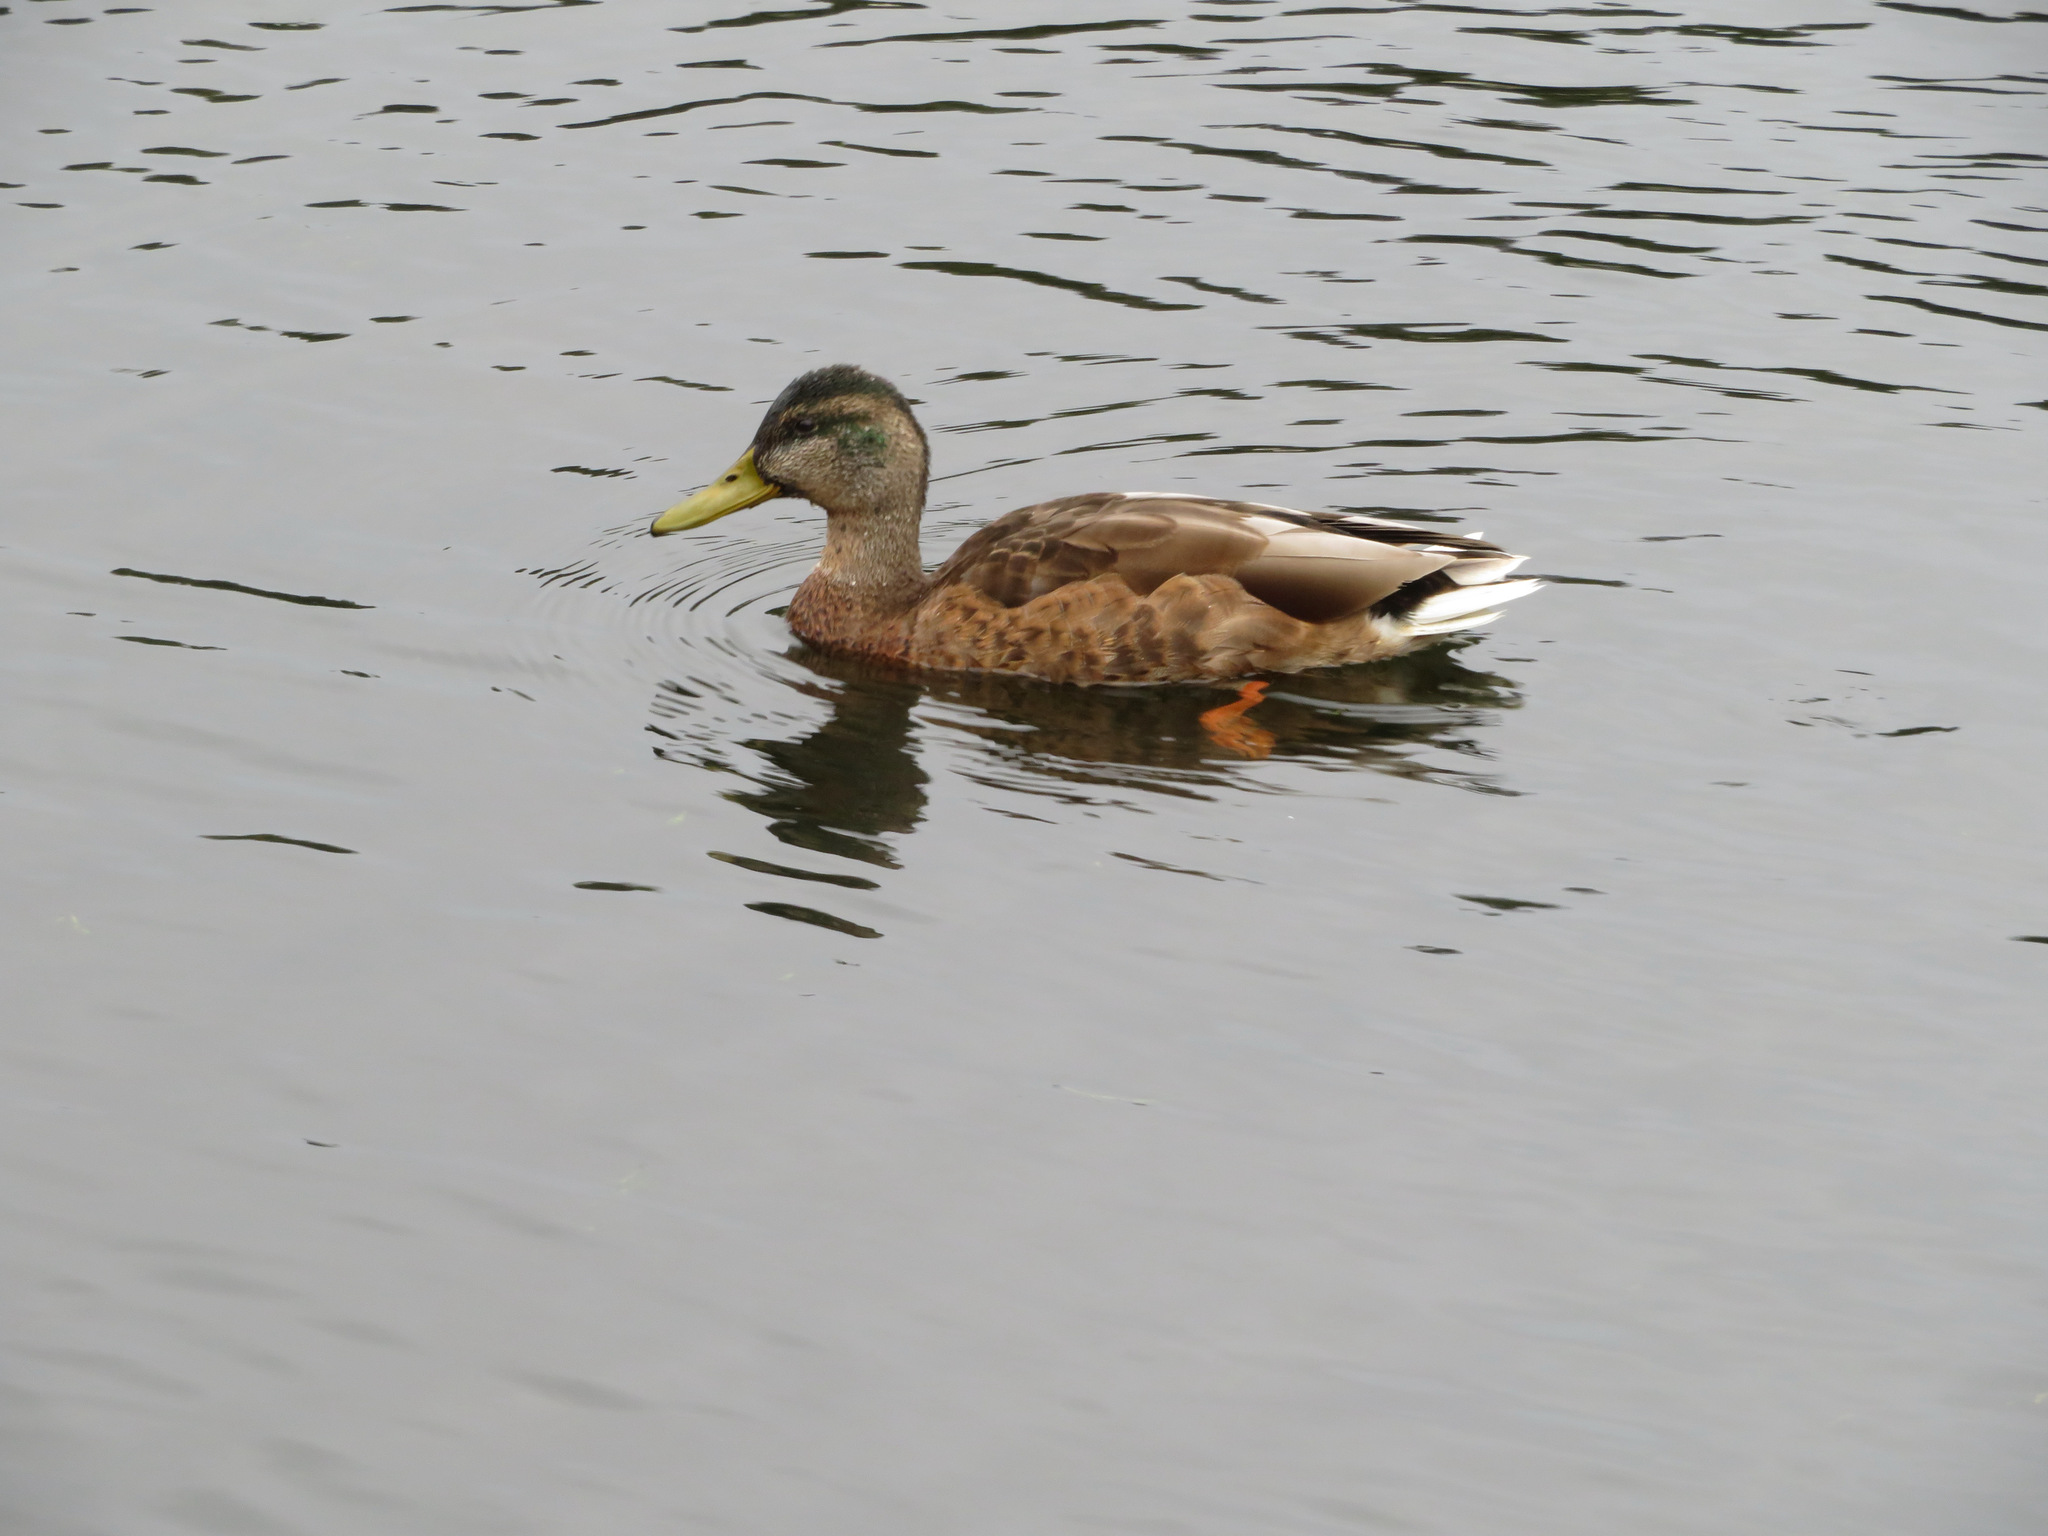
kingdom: Animalia
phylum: Chordata
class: Aves
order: Anseriformes
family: Anatidae
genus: Anas
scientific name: Anas platyrhynchos
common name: Mallard
